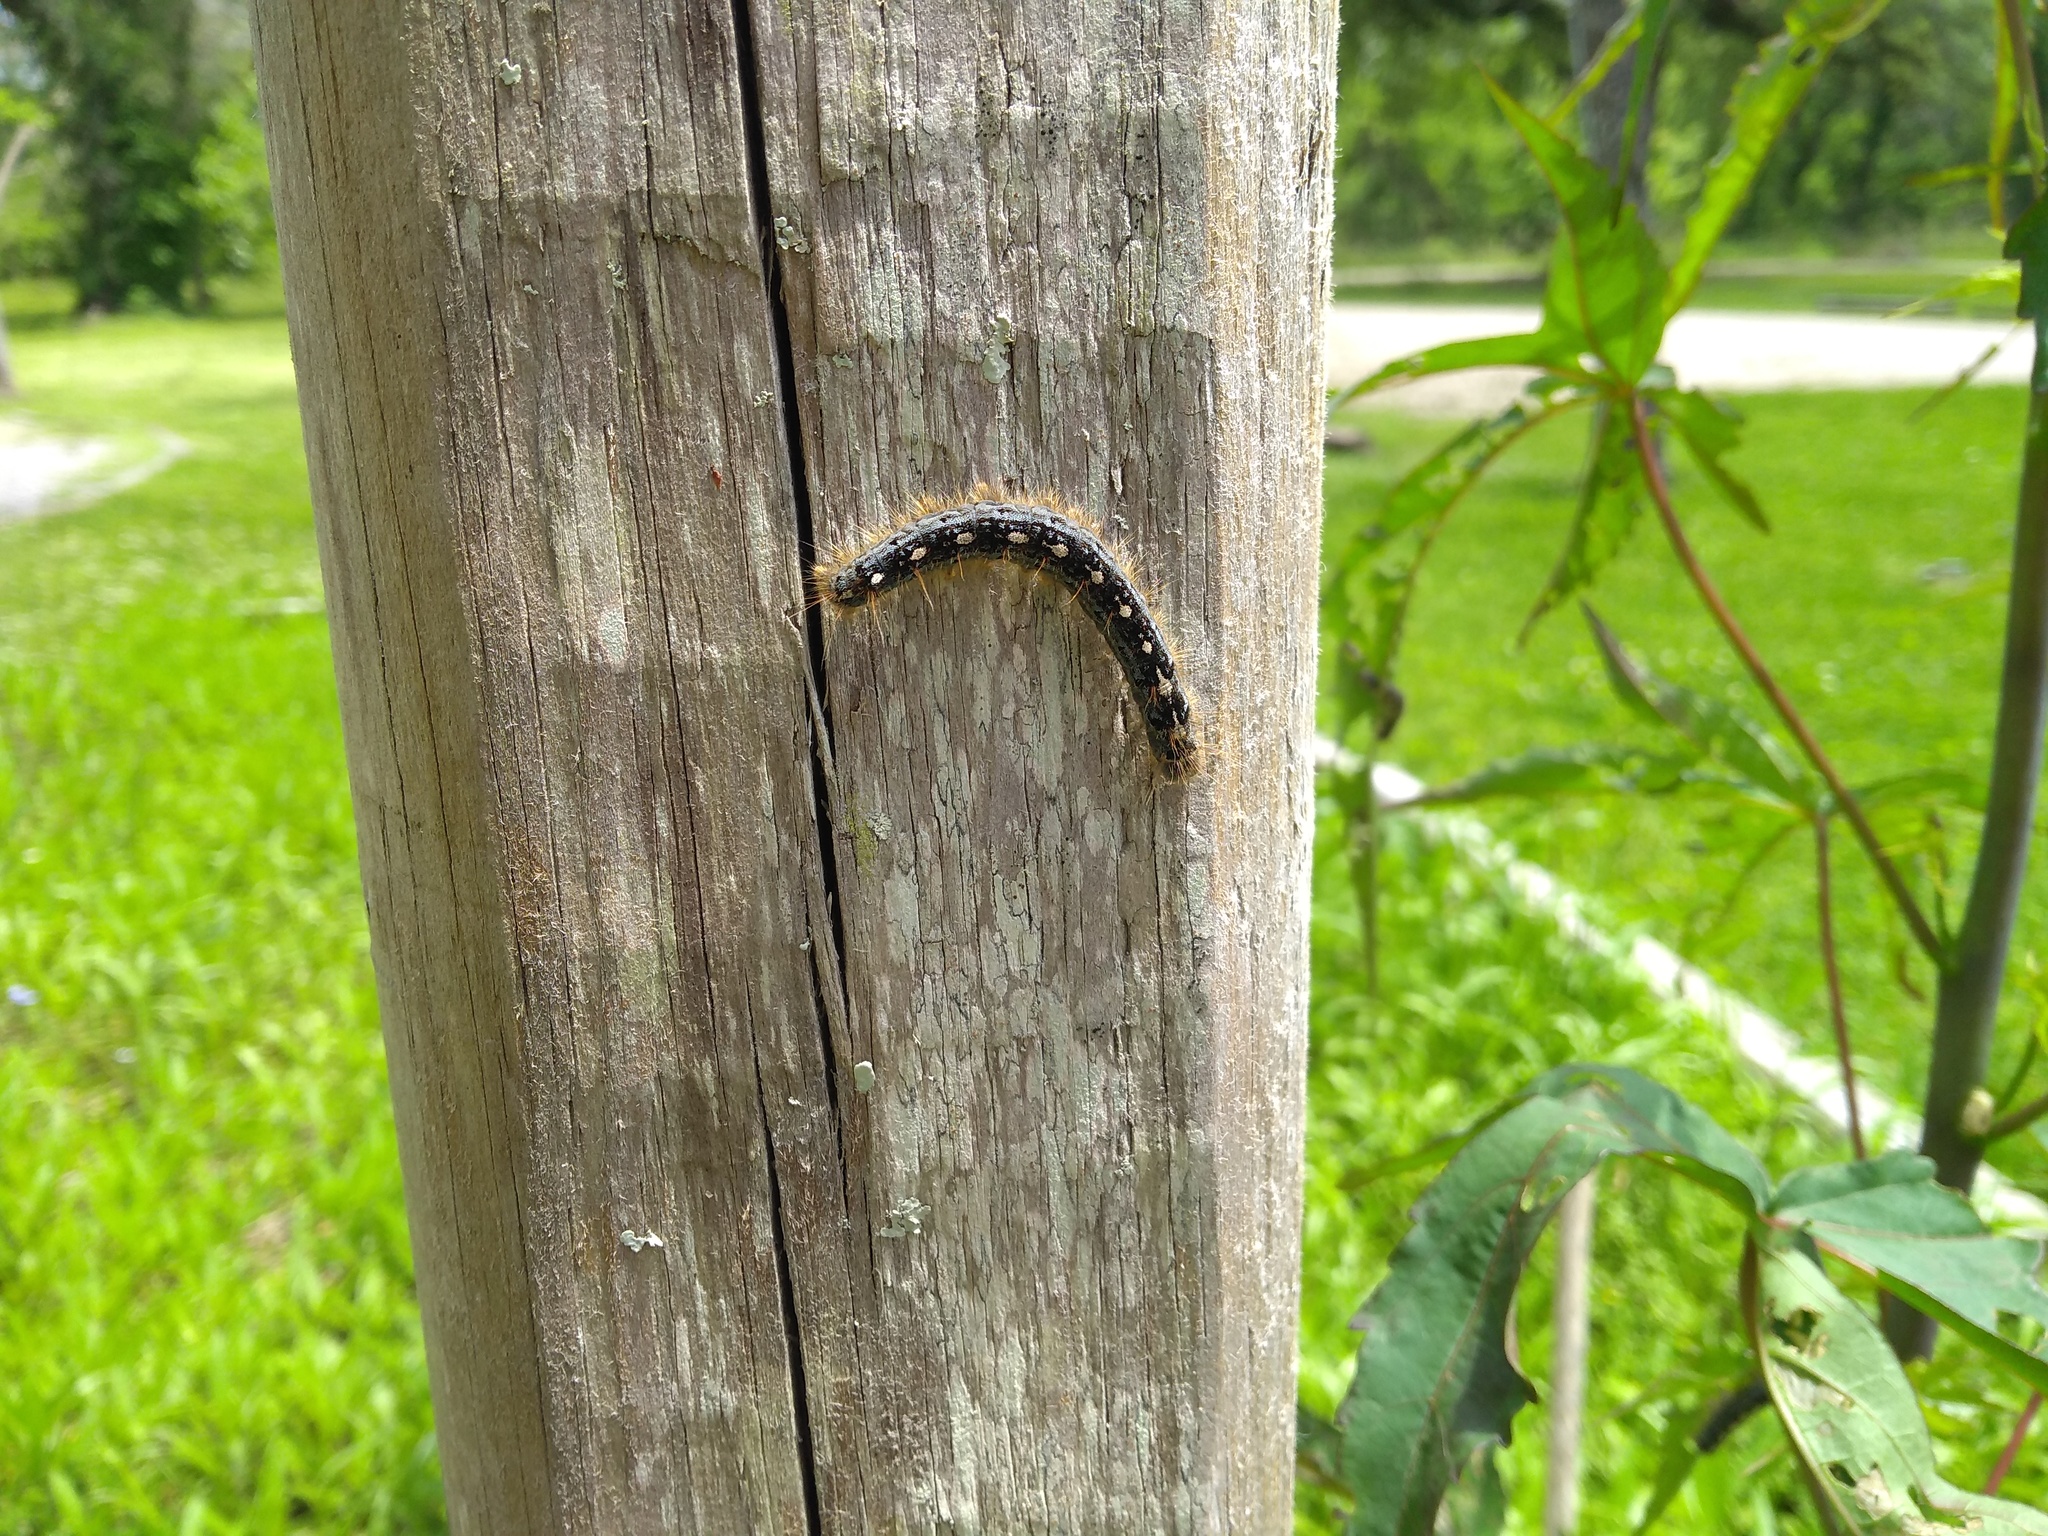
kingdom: Animalia
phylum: Arthropoda
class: Insecta
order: Lepidoptera
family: Lasiocampidae
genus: Malacosoma
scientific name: Malacosoma disstria
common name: Forest tent caterpillar
